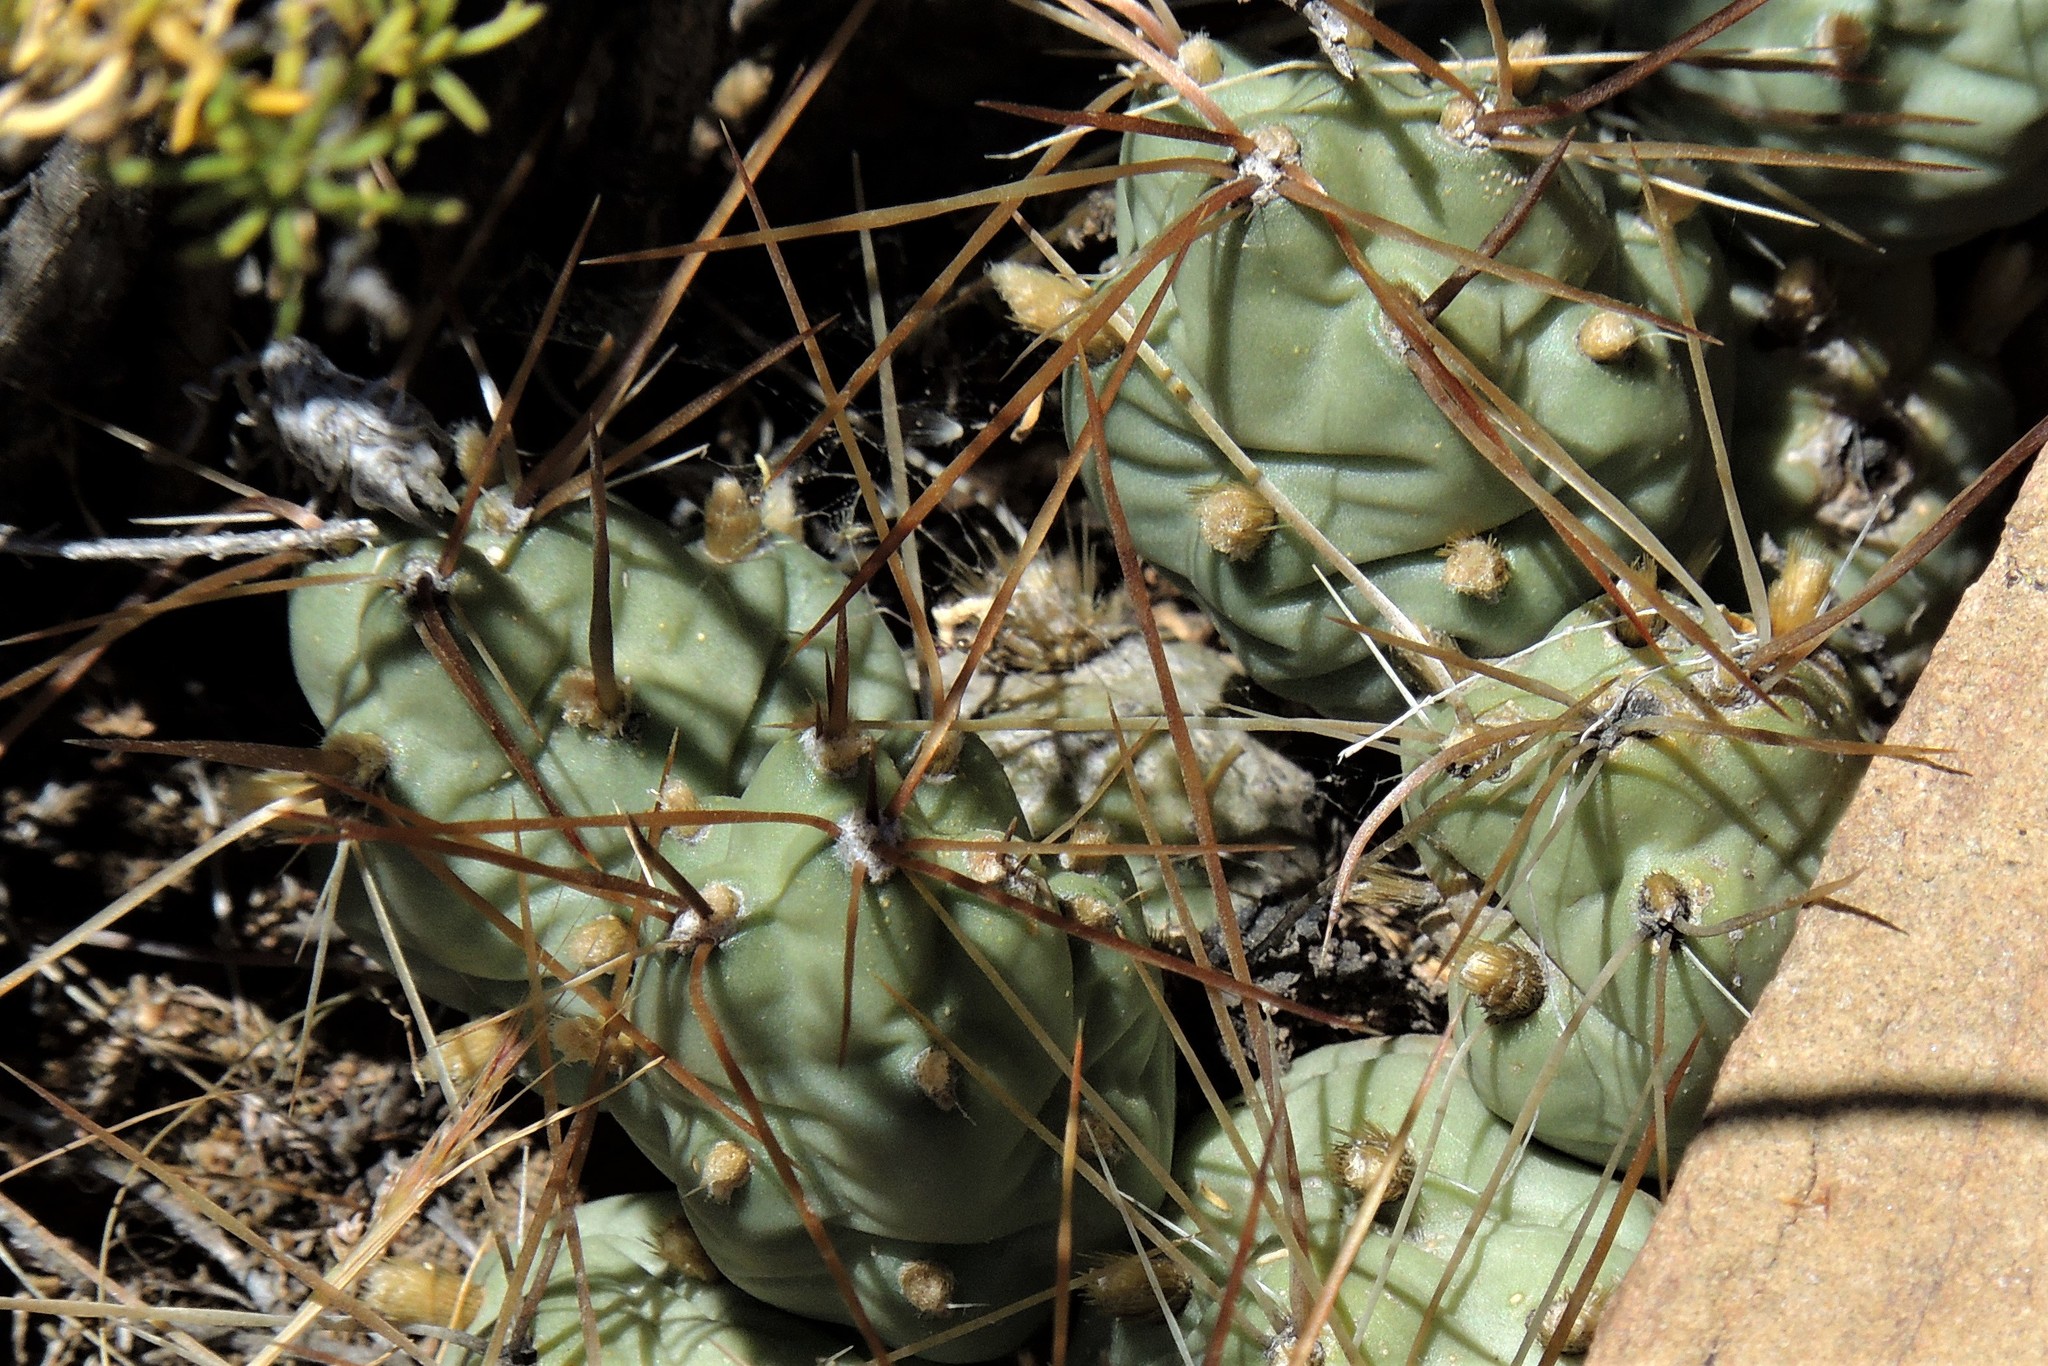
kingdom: Plantae
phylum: Tracheophyta
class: Magnoliopsida
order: Caryophyllales
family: Cactaceae
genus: Cumulopuntia
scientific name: Cumulopuntia boliviana
